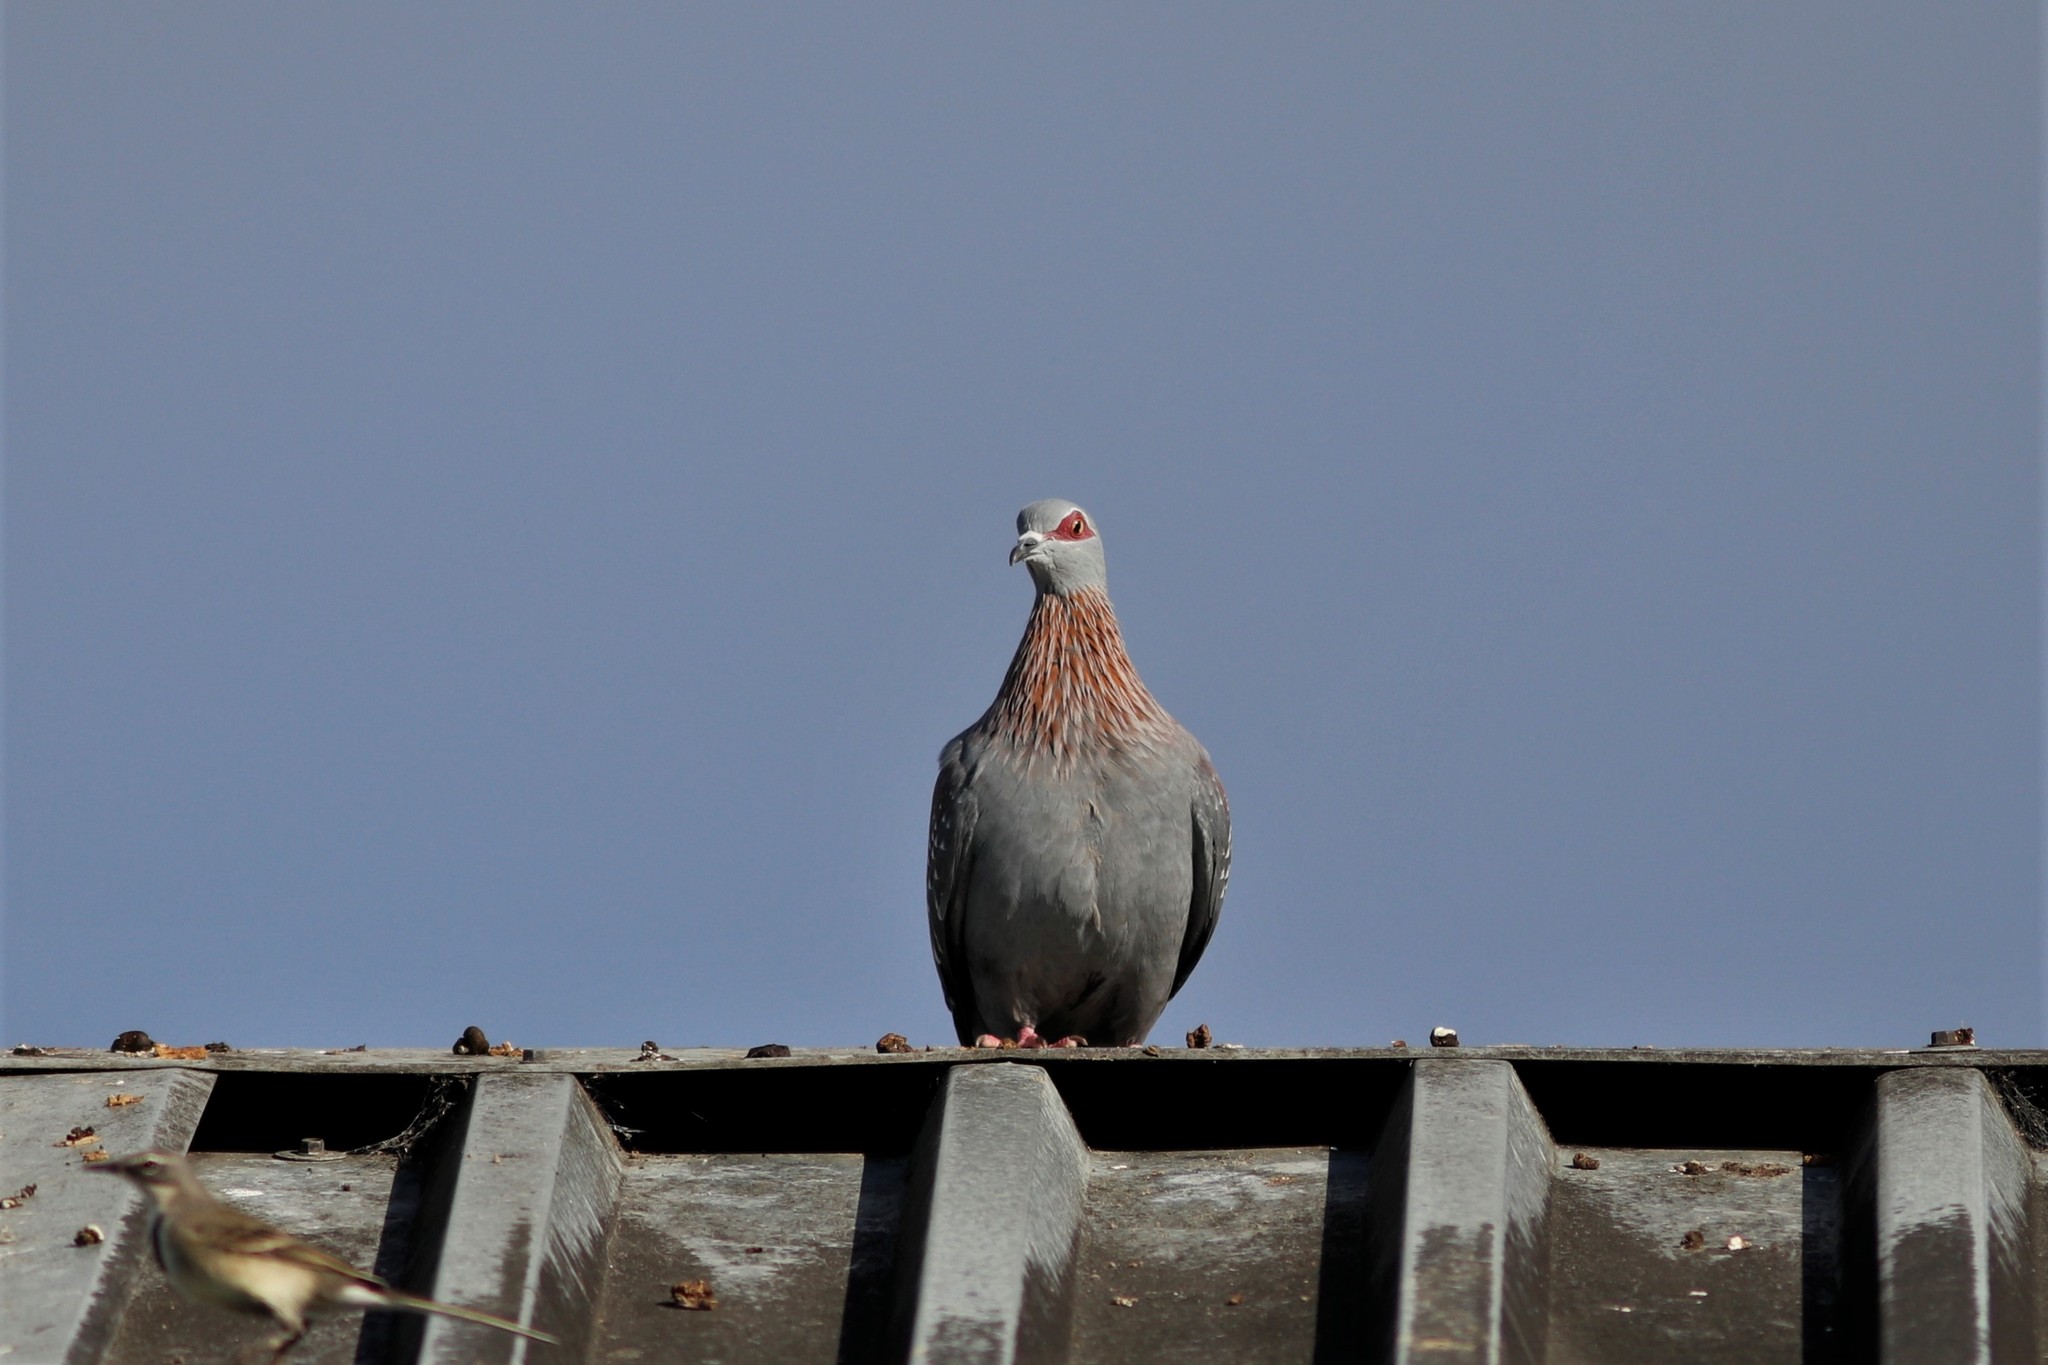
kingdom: Animalia
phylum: Chordata
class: Aves
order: Columbiformes
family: Columbidae
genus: Columba
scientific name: Columba guinea
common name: Speckled pigeon
